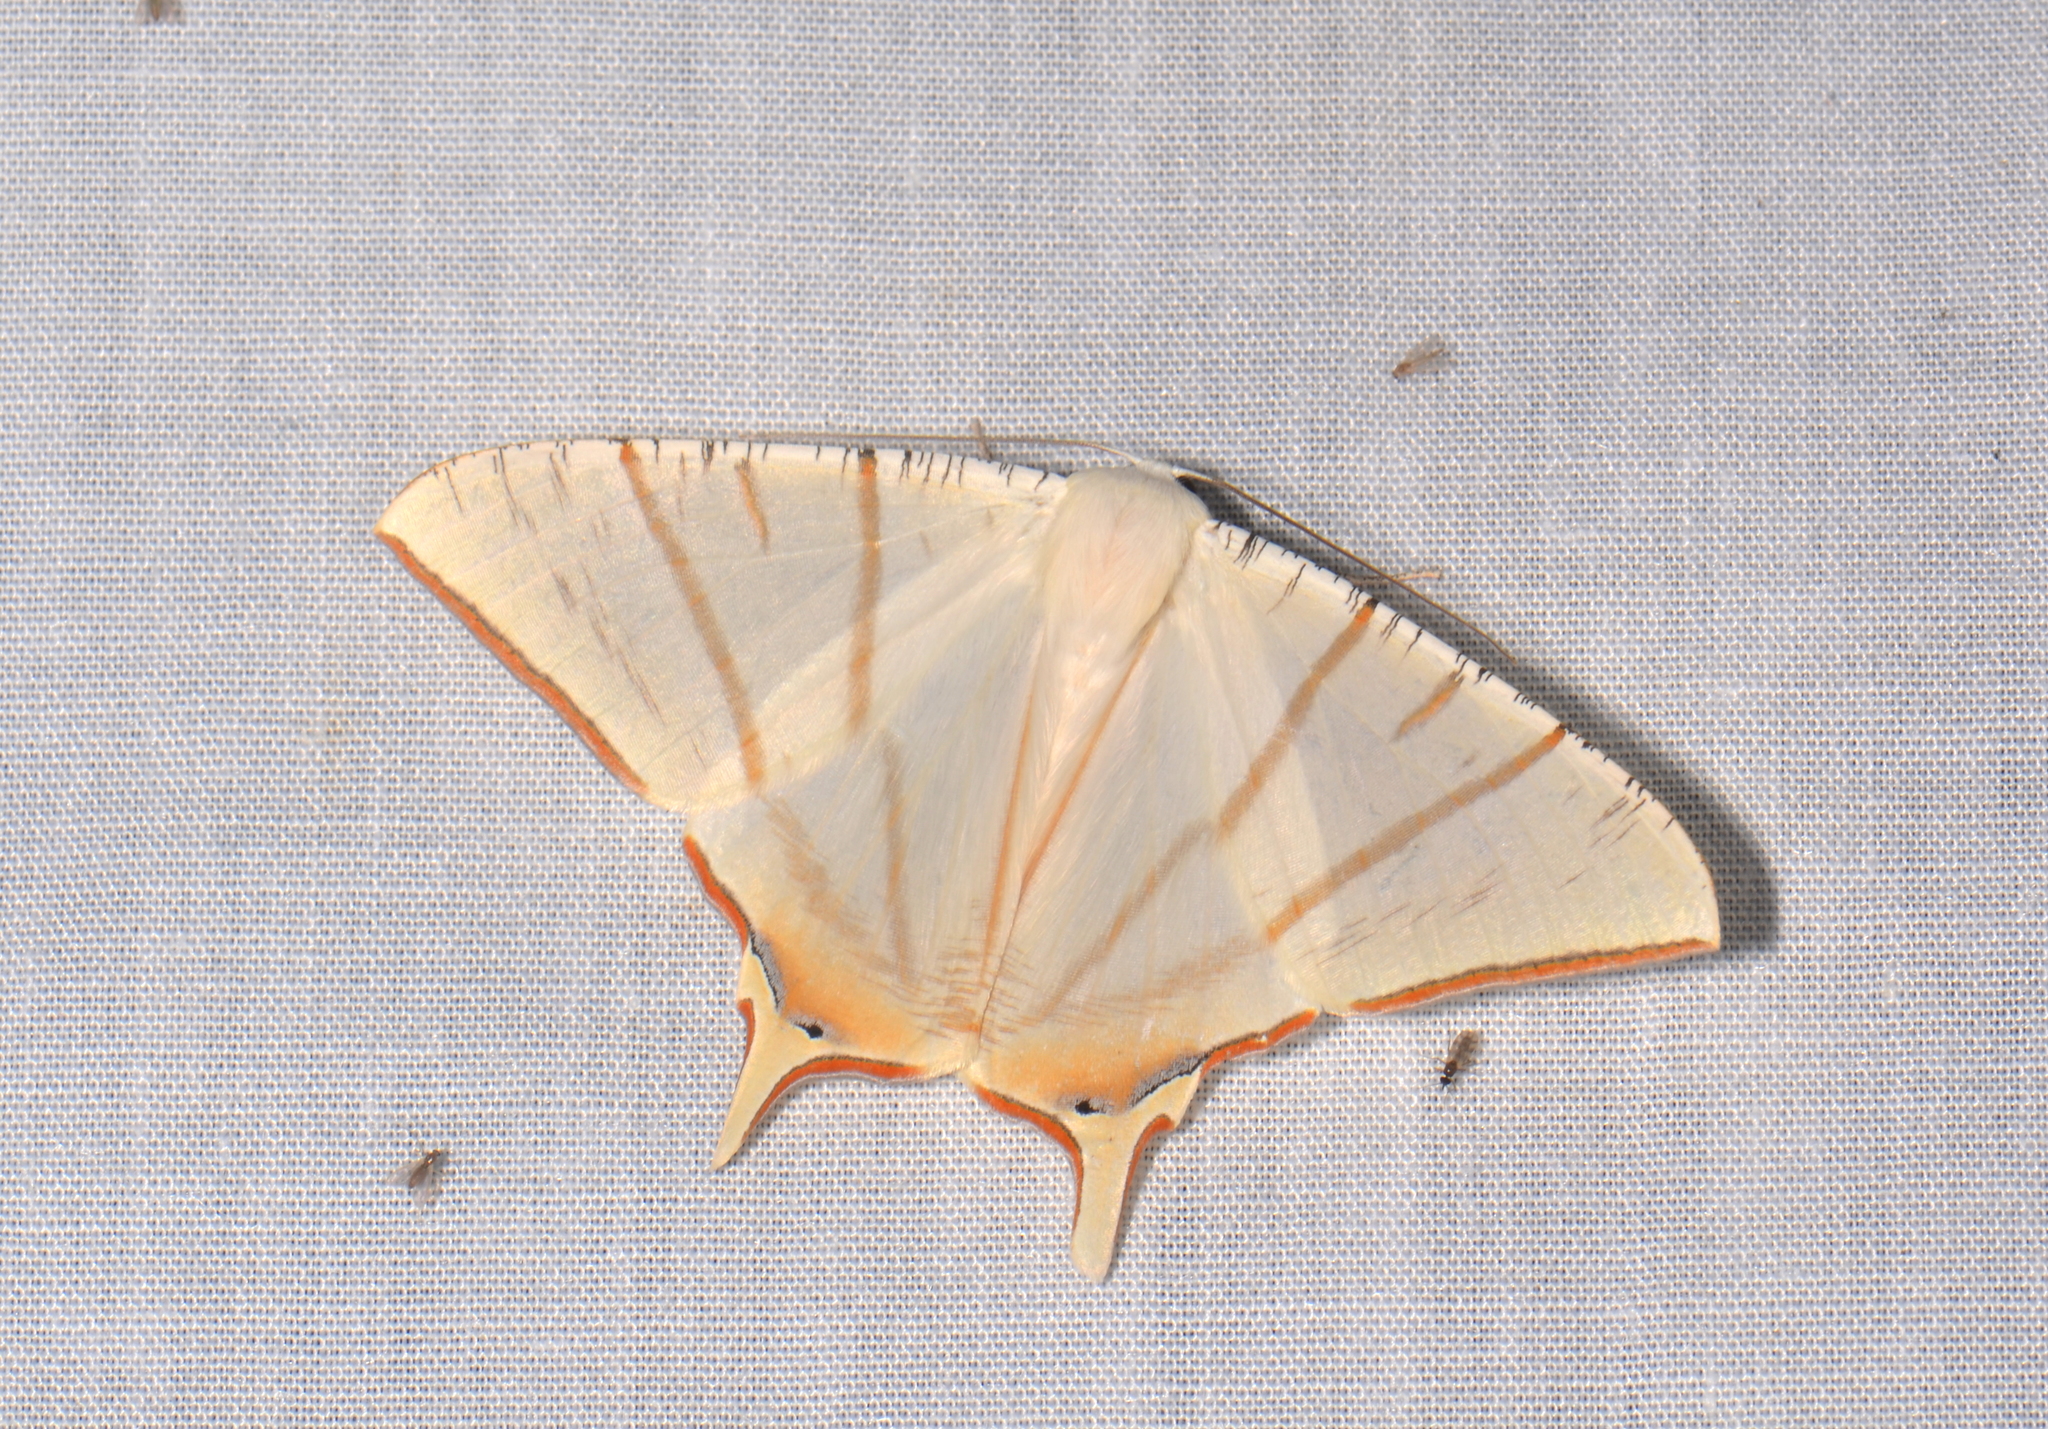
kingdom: Animalia
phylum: Arthropoda
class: Insecta
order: Lepidoptera
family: Geometridae
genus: Ourapteryx
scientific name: Ourapteryx claretta
